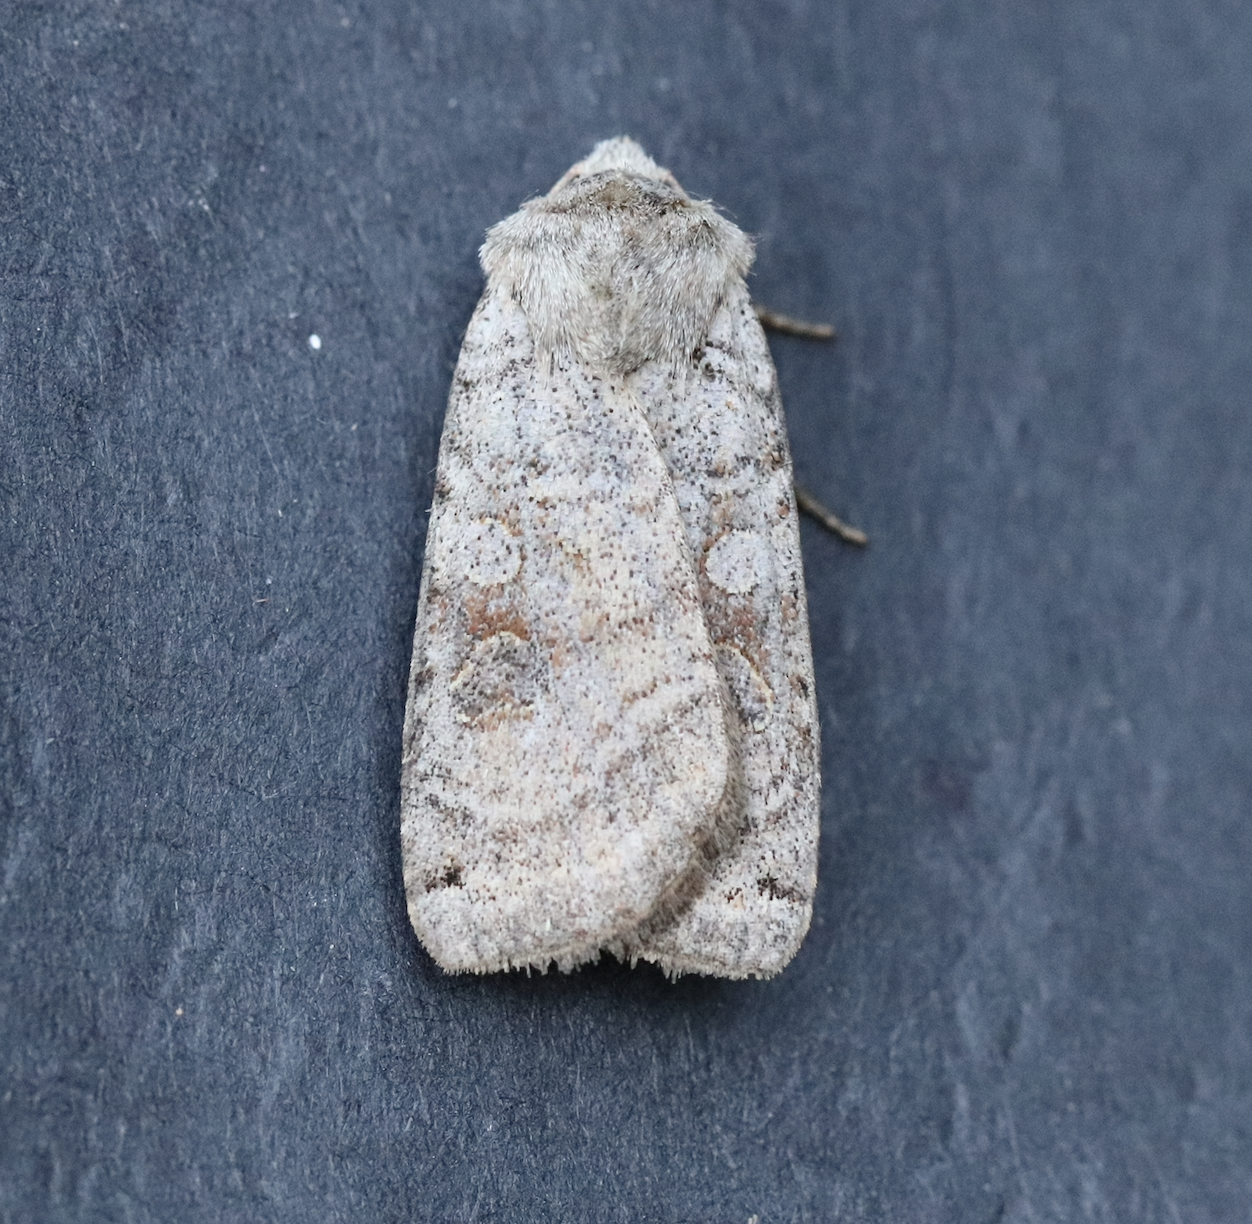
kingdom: Animalia
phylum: Arthropoda
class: Insecta
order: Lepidoptera
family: Noctuidae
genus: Xestia
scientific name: Xestia smithii
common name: Smith's dart
